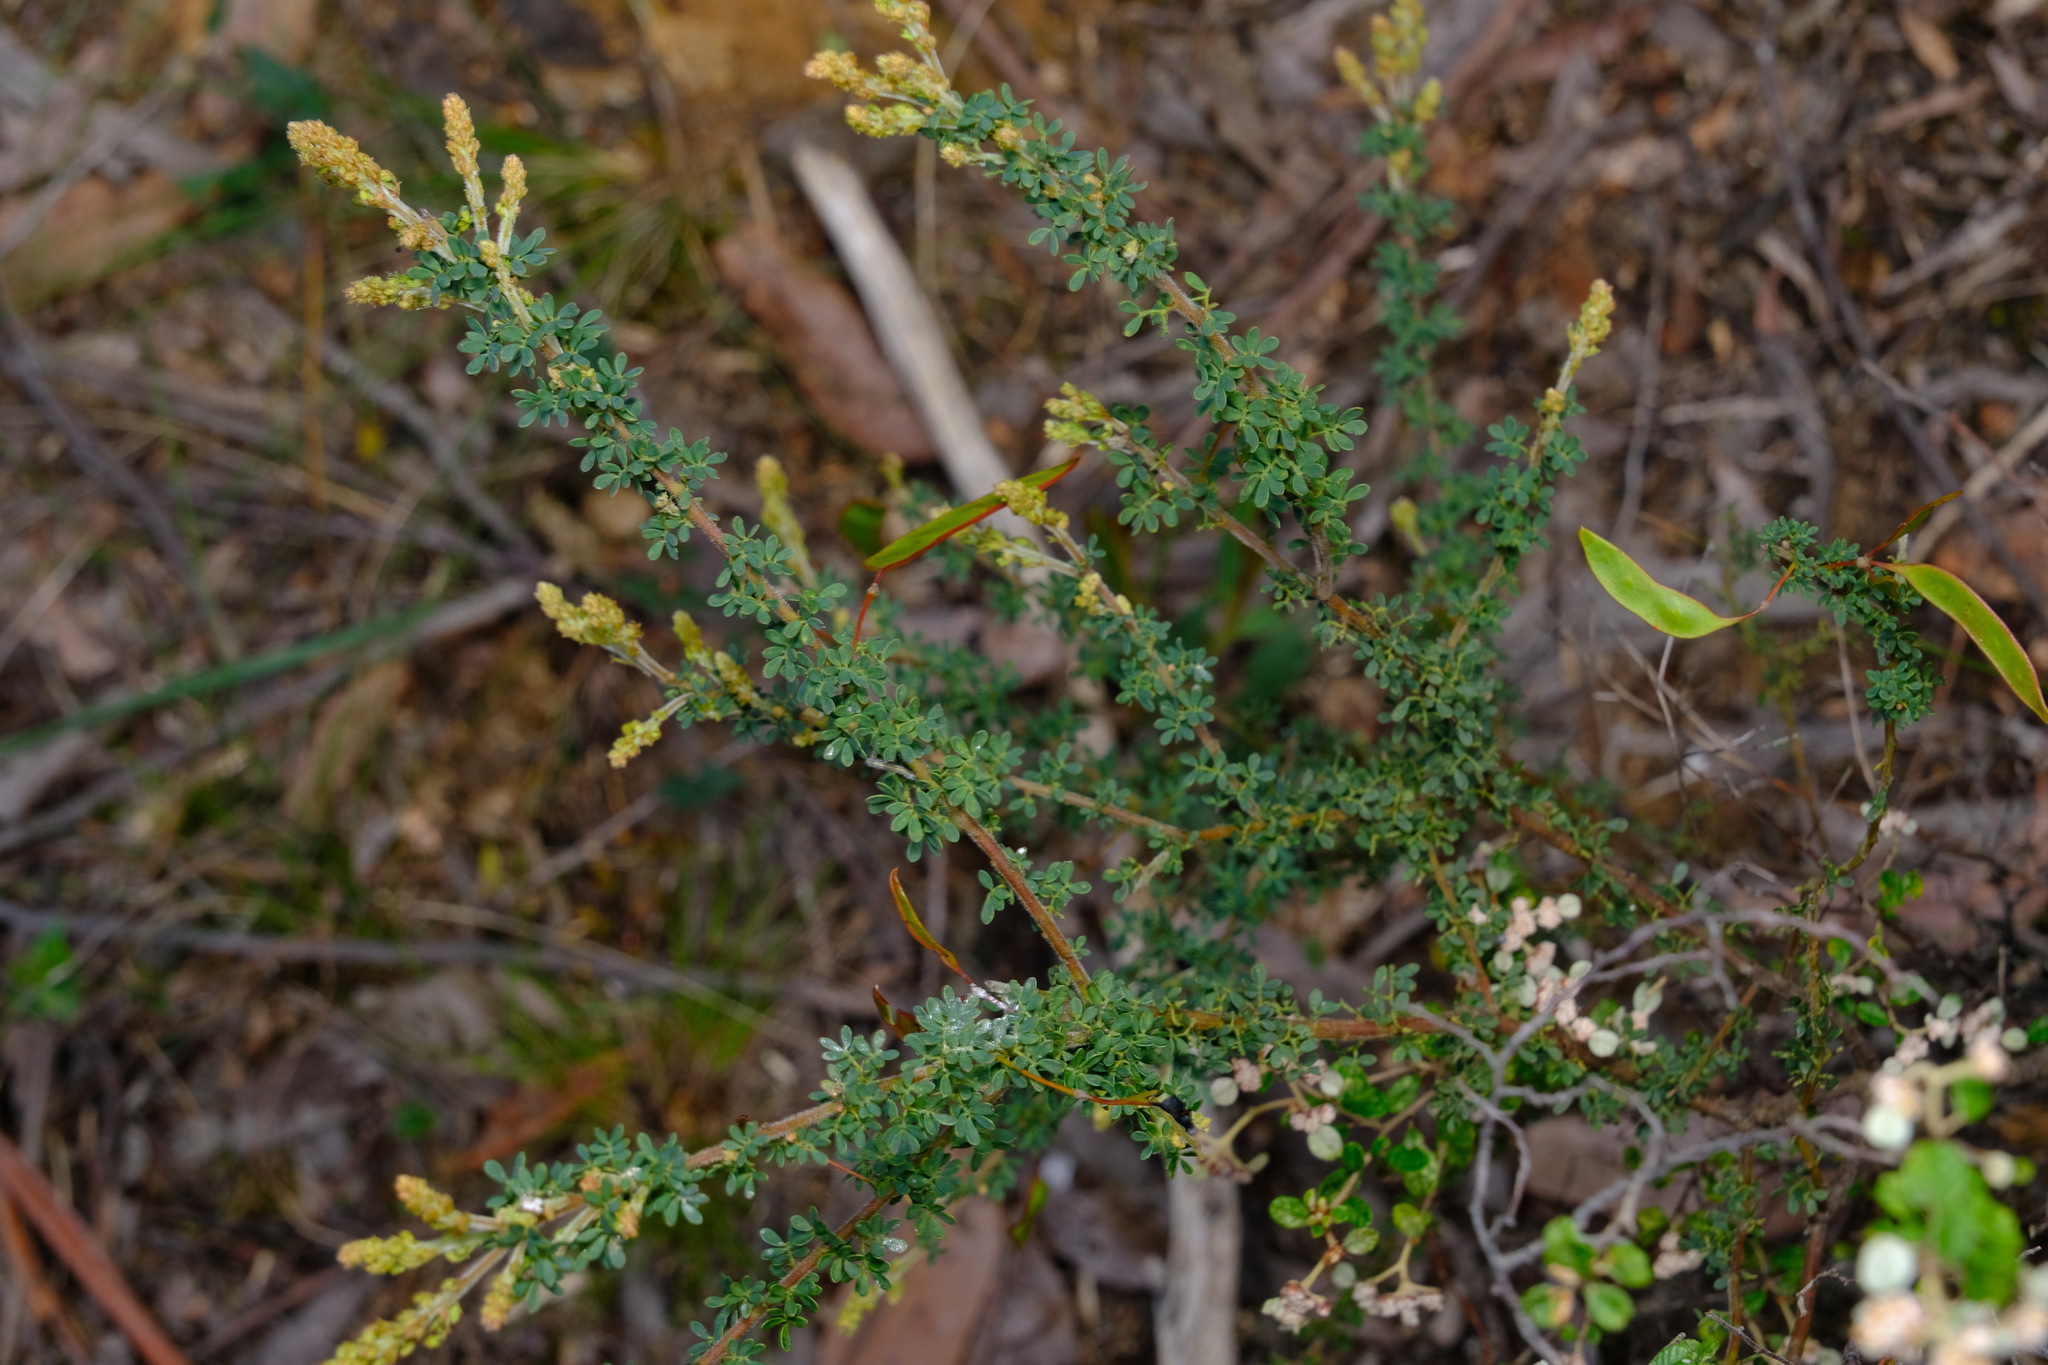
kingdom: Plantae
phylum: Tracheophyta
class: Magnoliopsida
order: Fabales
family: Fabaceae
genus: Acacia
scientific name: Acacia mitchellii
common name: Mitchell's wattle
